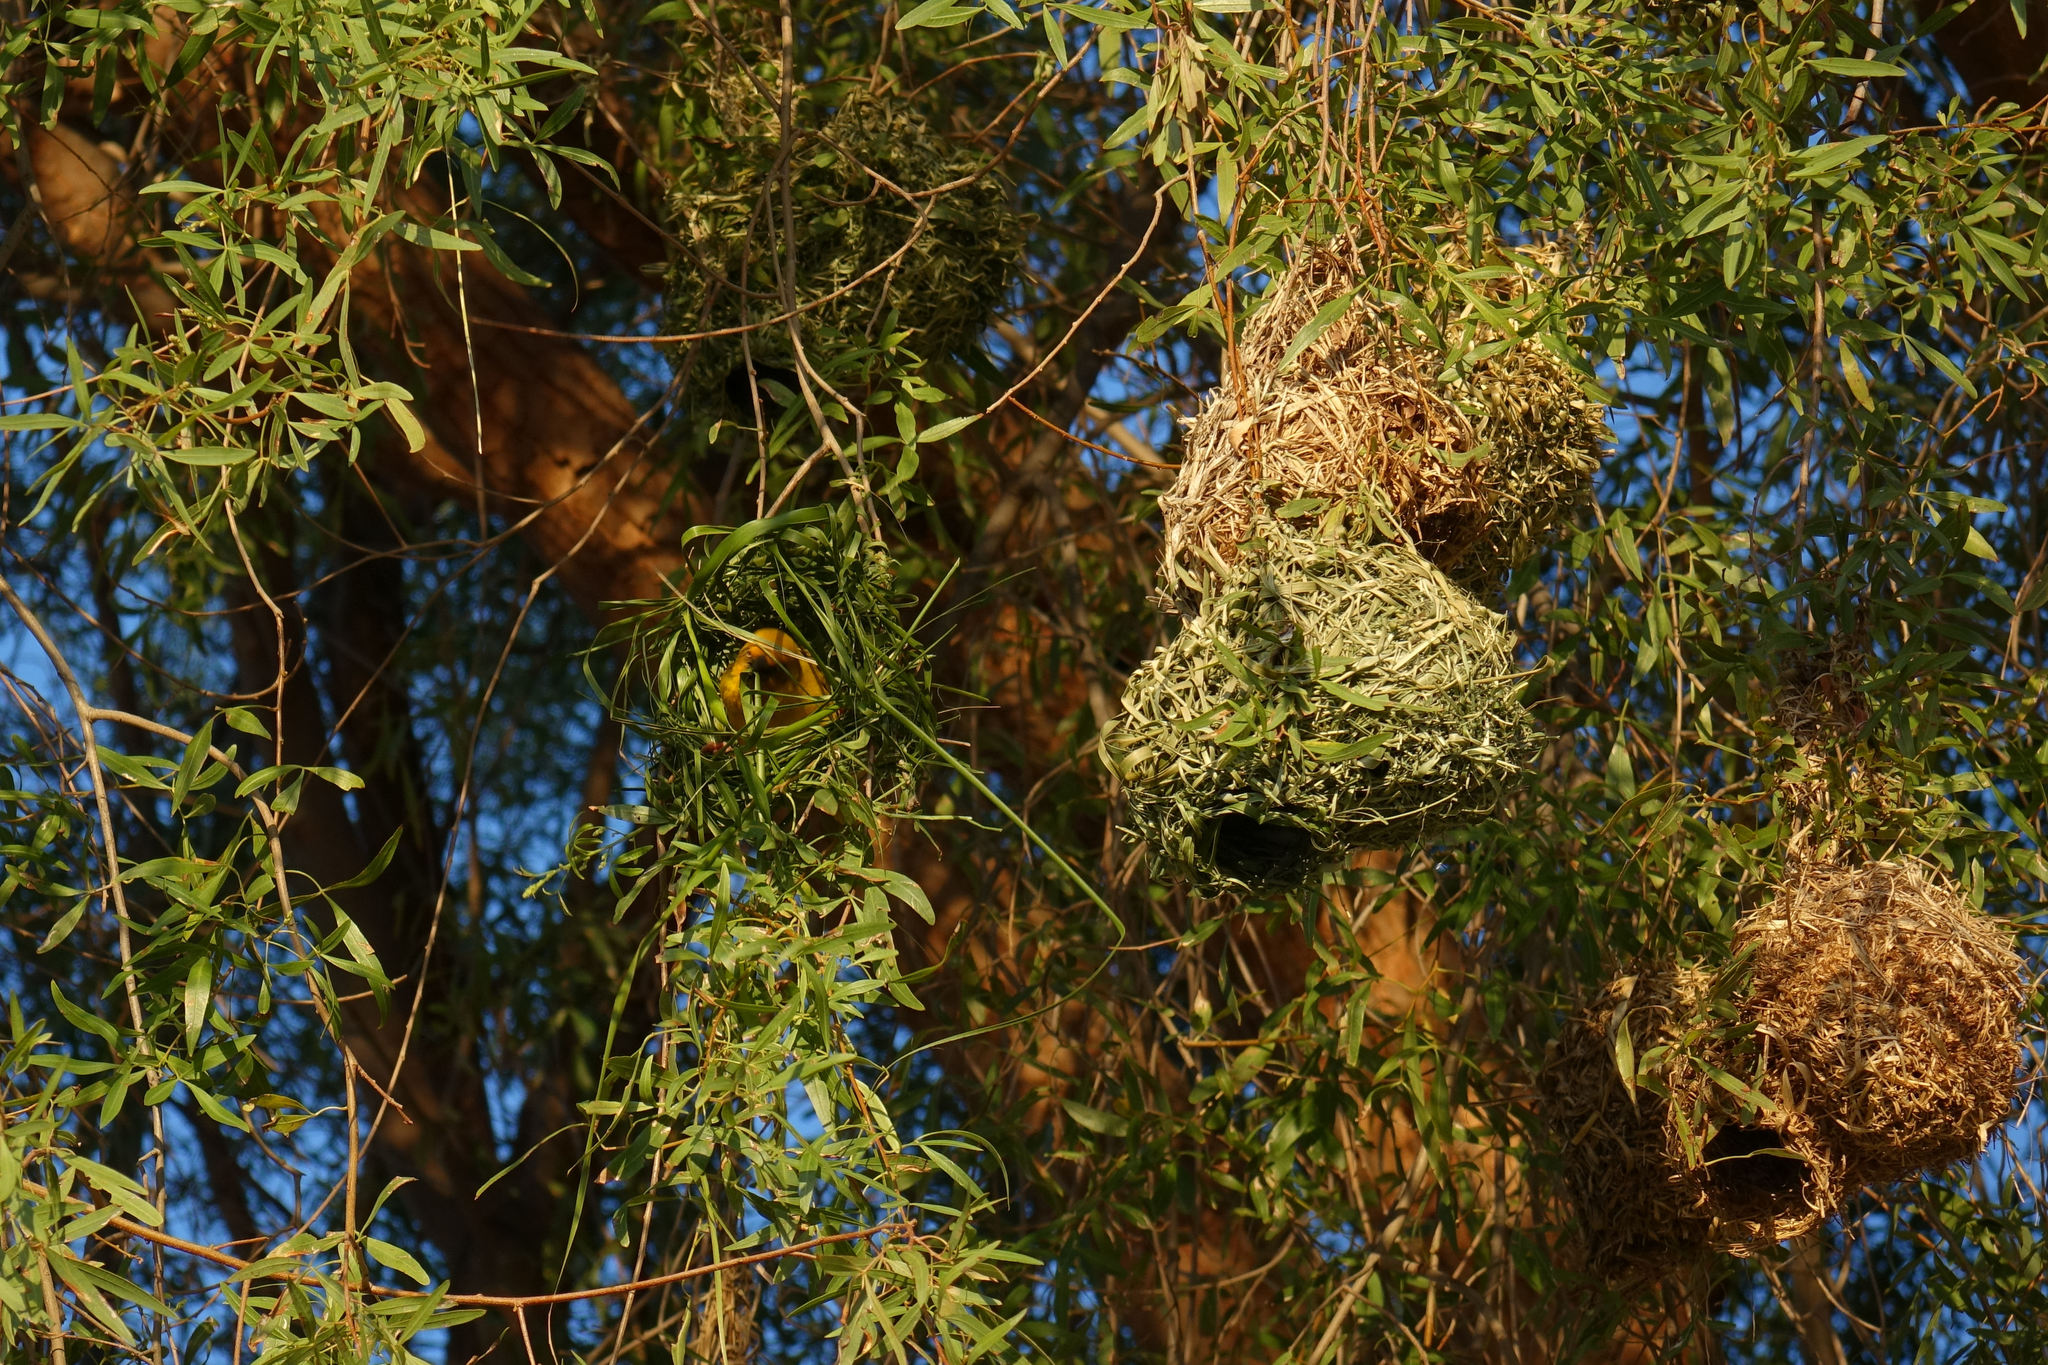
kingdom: Animalia
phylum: Chordata
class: Aves
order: Passeriformes
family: Ploceidae
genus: Ploceus
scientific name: Ploceus capensis
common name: Cape weaver
